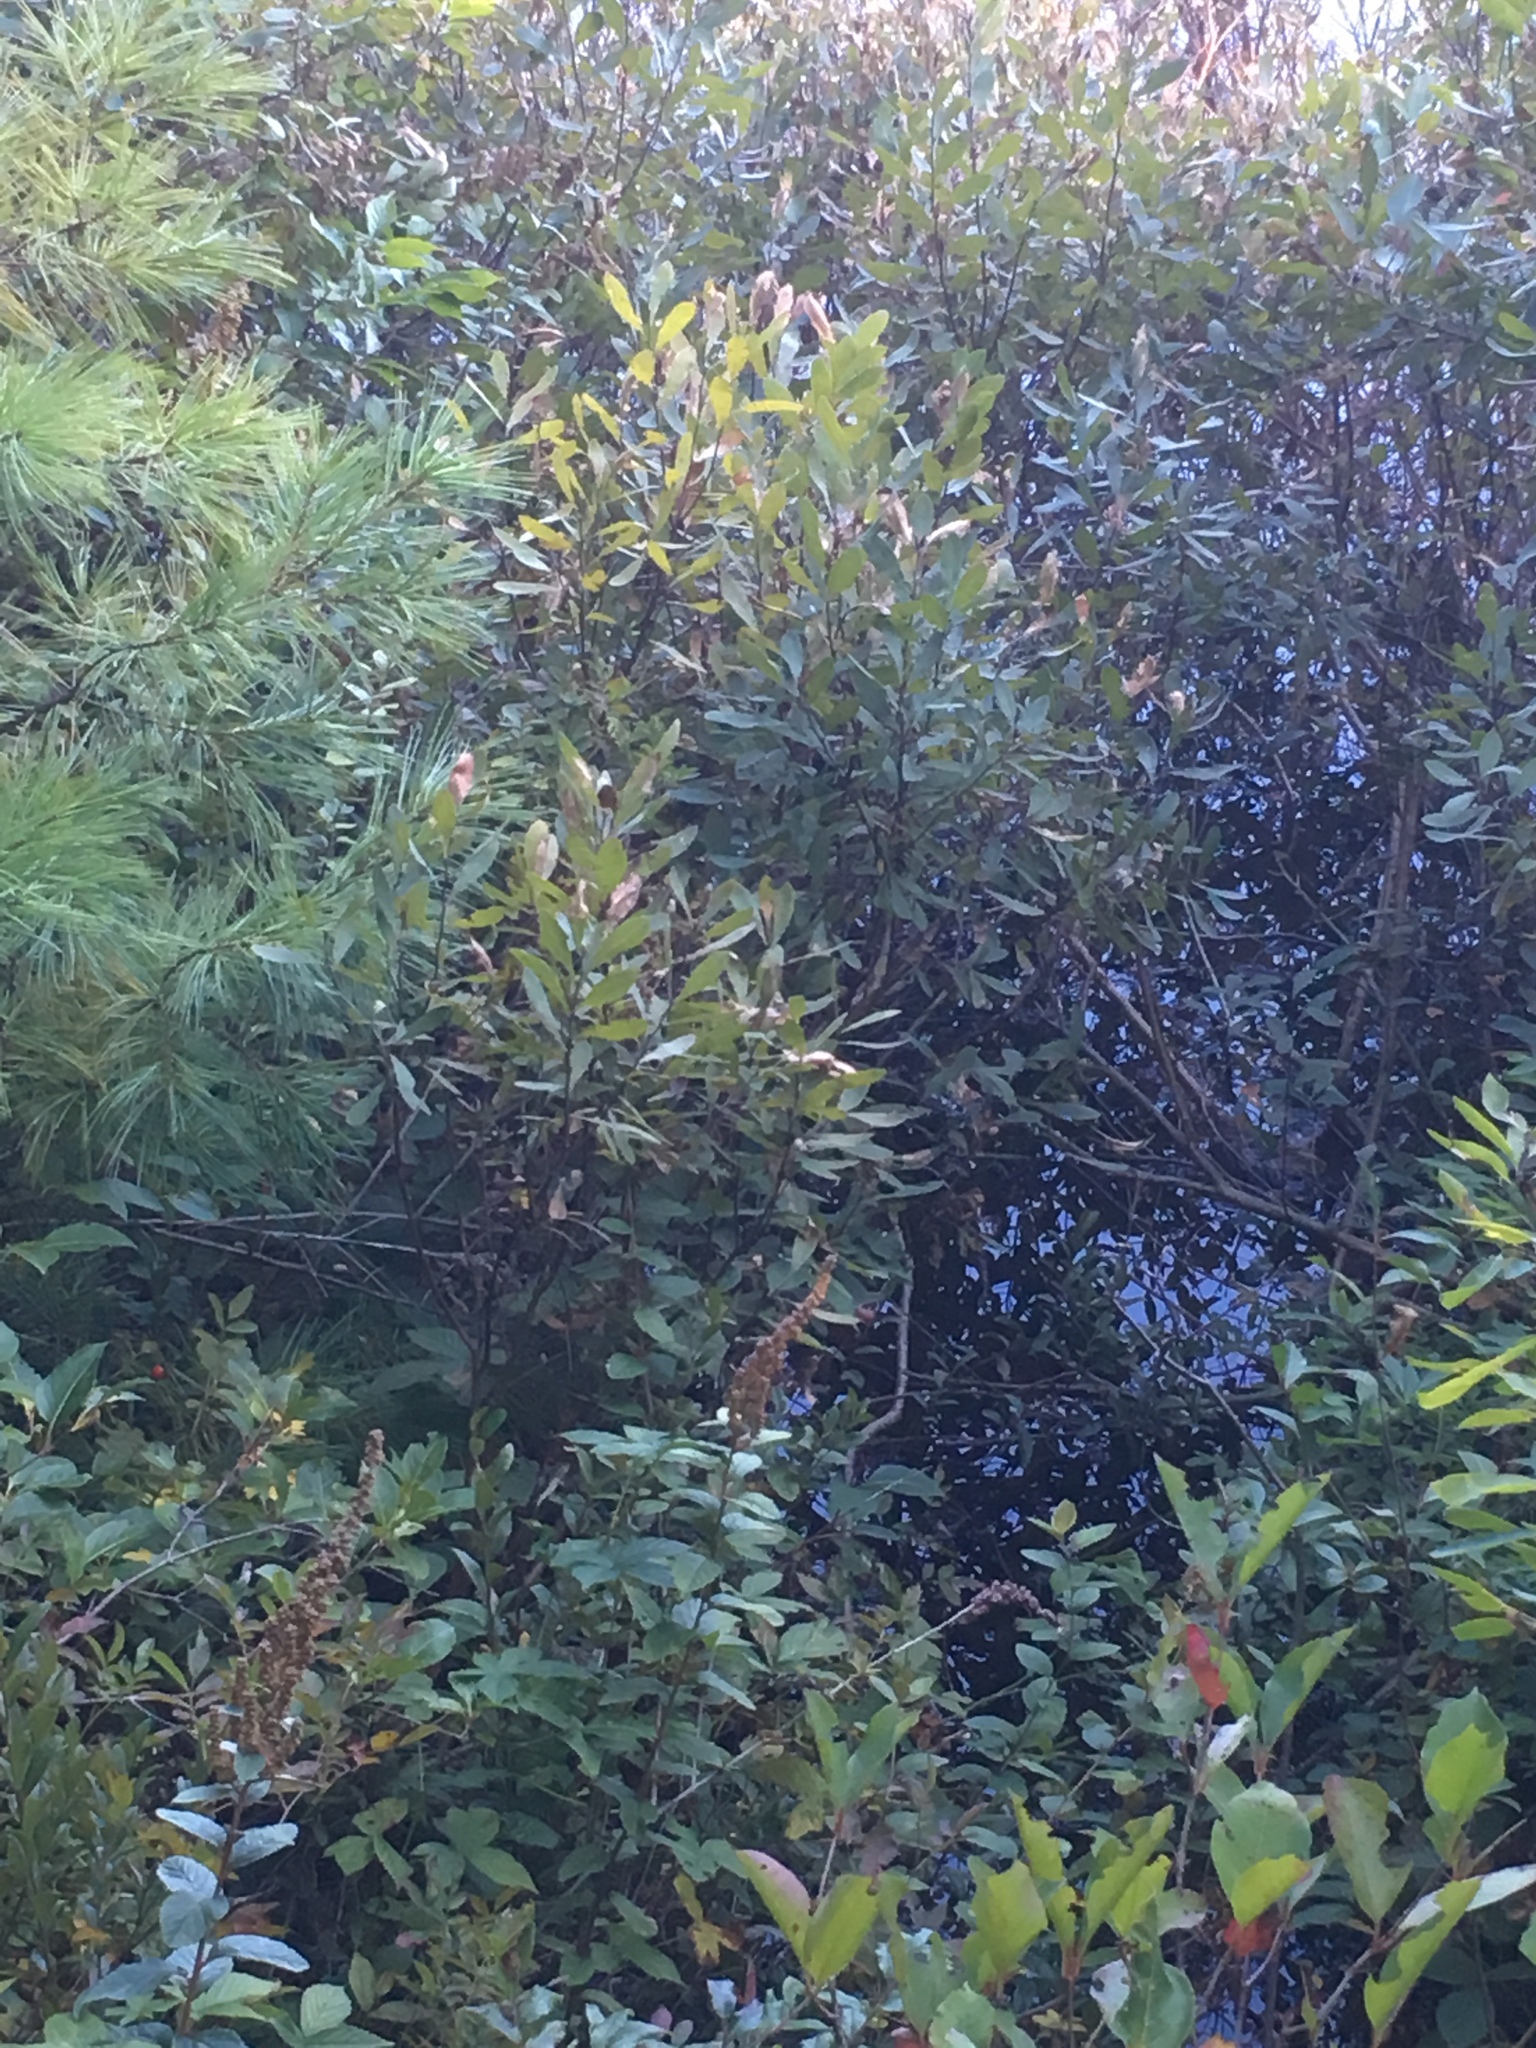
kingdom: Plantae
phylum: Tracheophyta
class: Magnoliopsida
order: Fagales
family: Myricaceae
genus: Myrica
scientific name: Myrica gale
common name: Sweet gale
